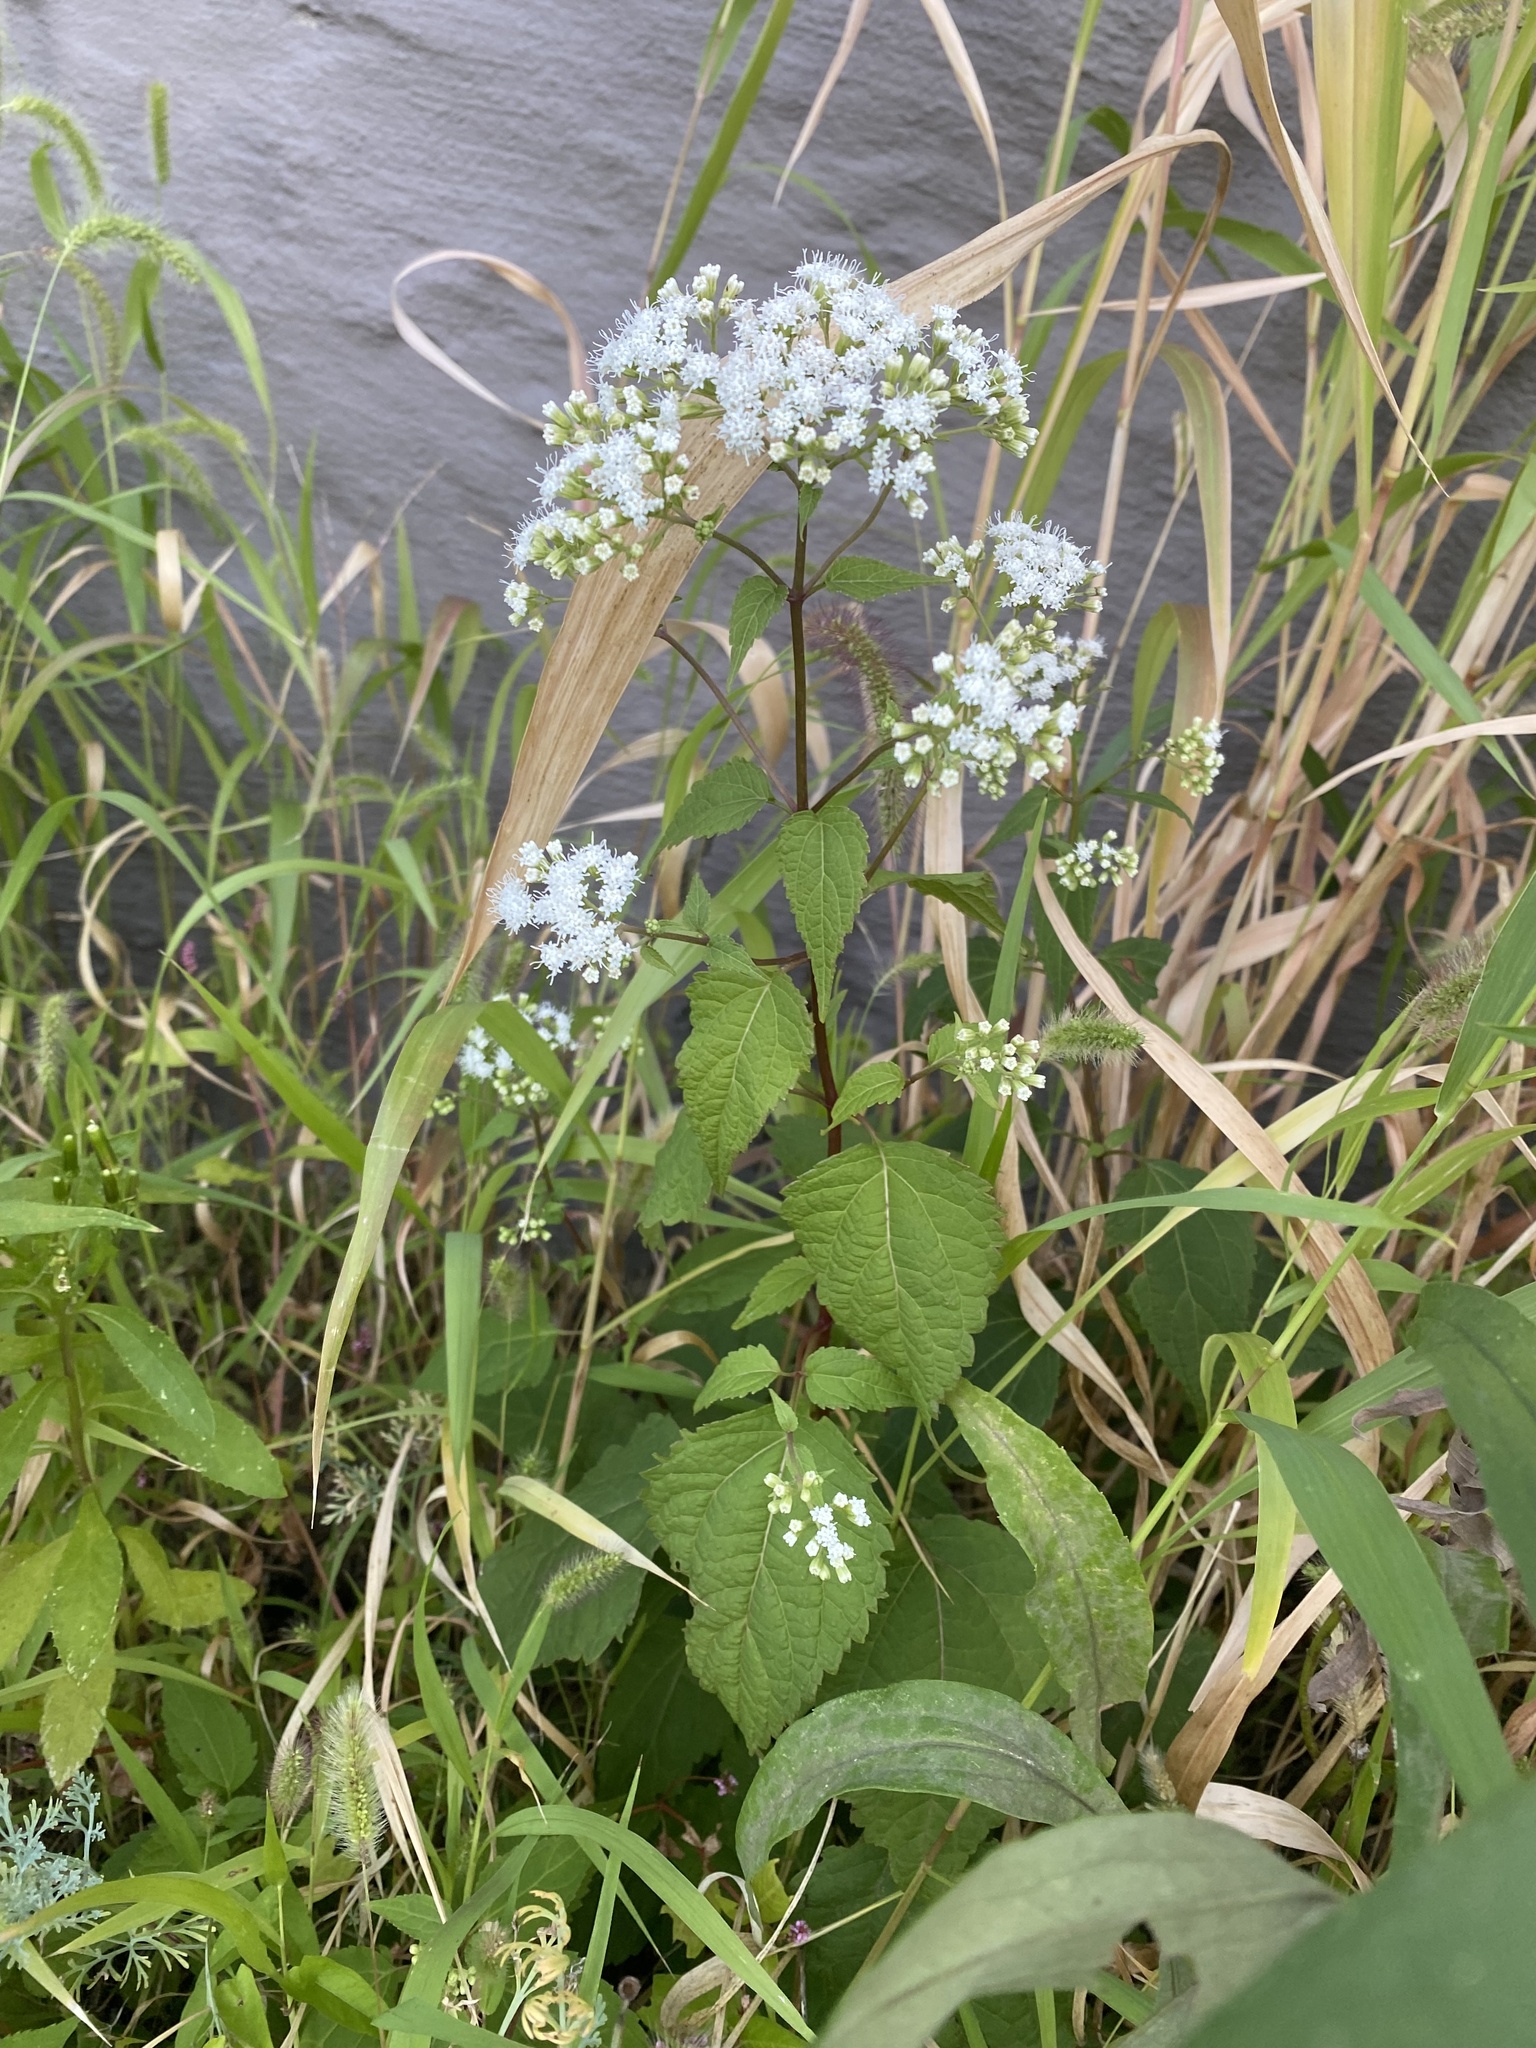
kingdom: Plantae
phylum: Tracheophyta
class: Magnoliopsida
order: Asterales
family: Asteraceae
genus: Ageratina
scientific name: Ageratina altissima
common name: White snakeroot
